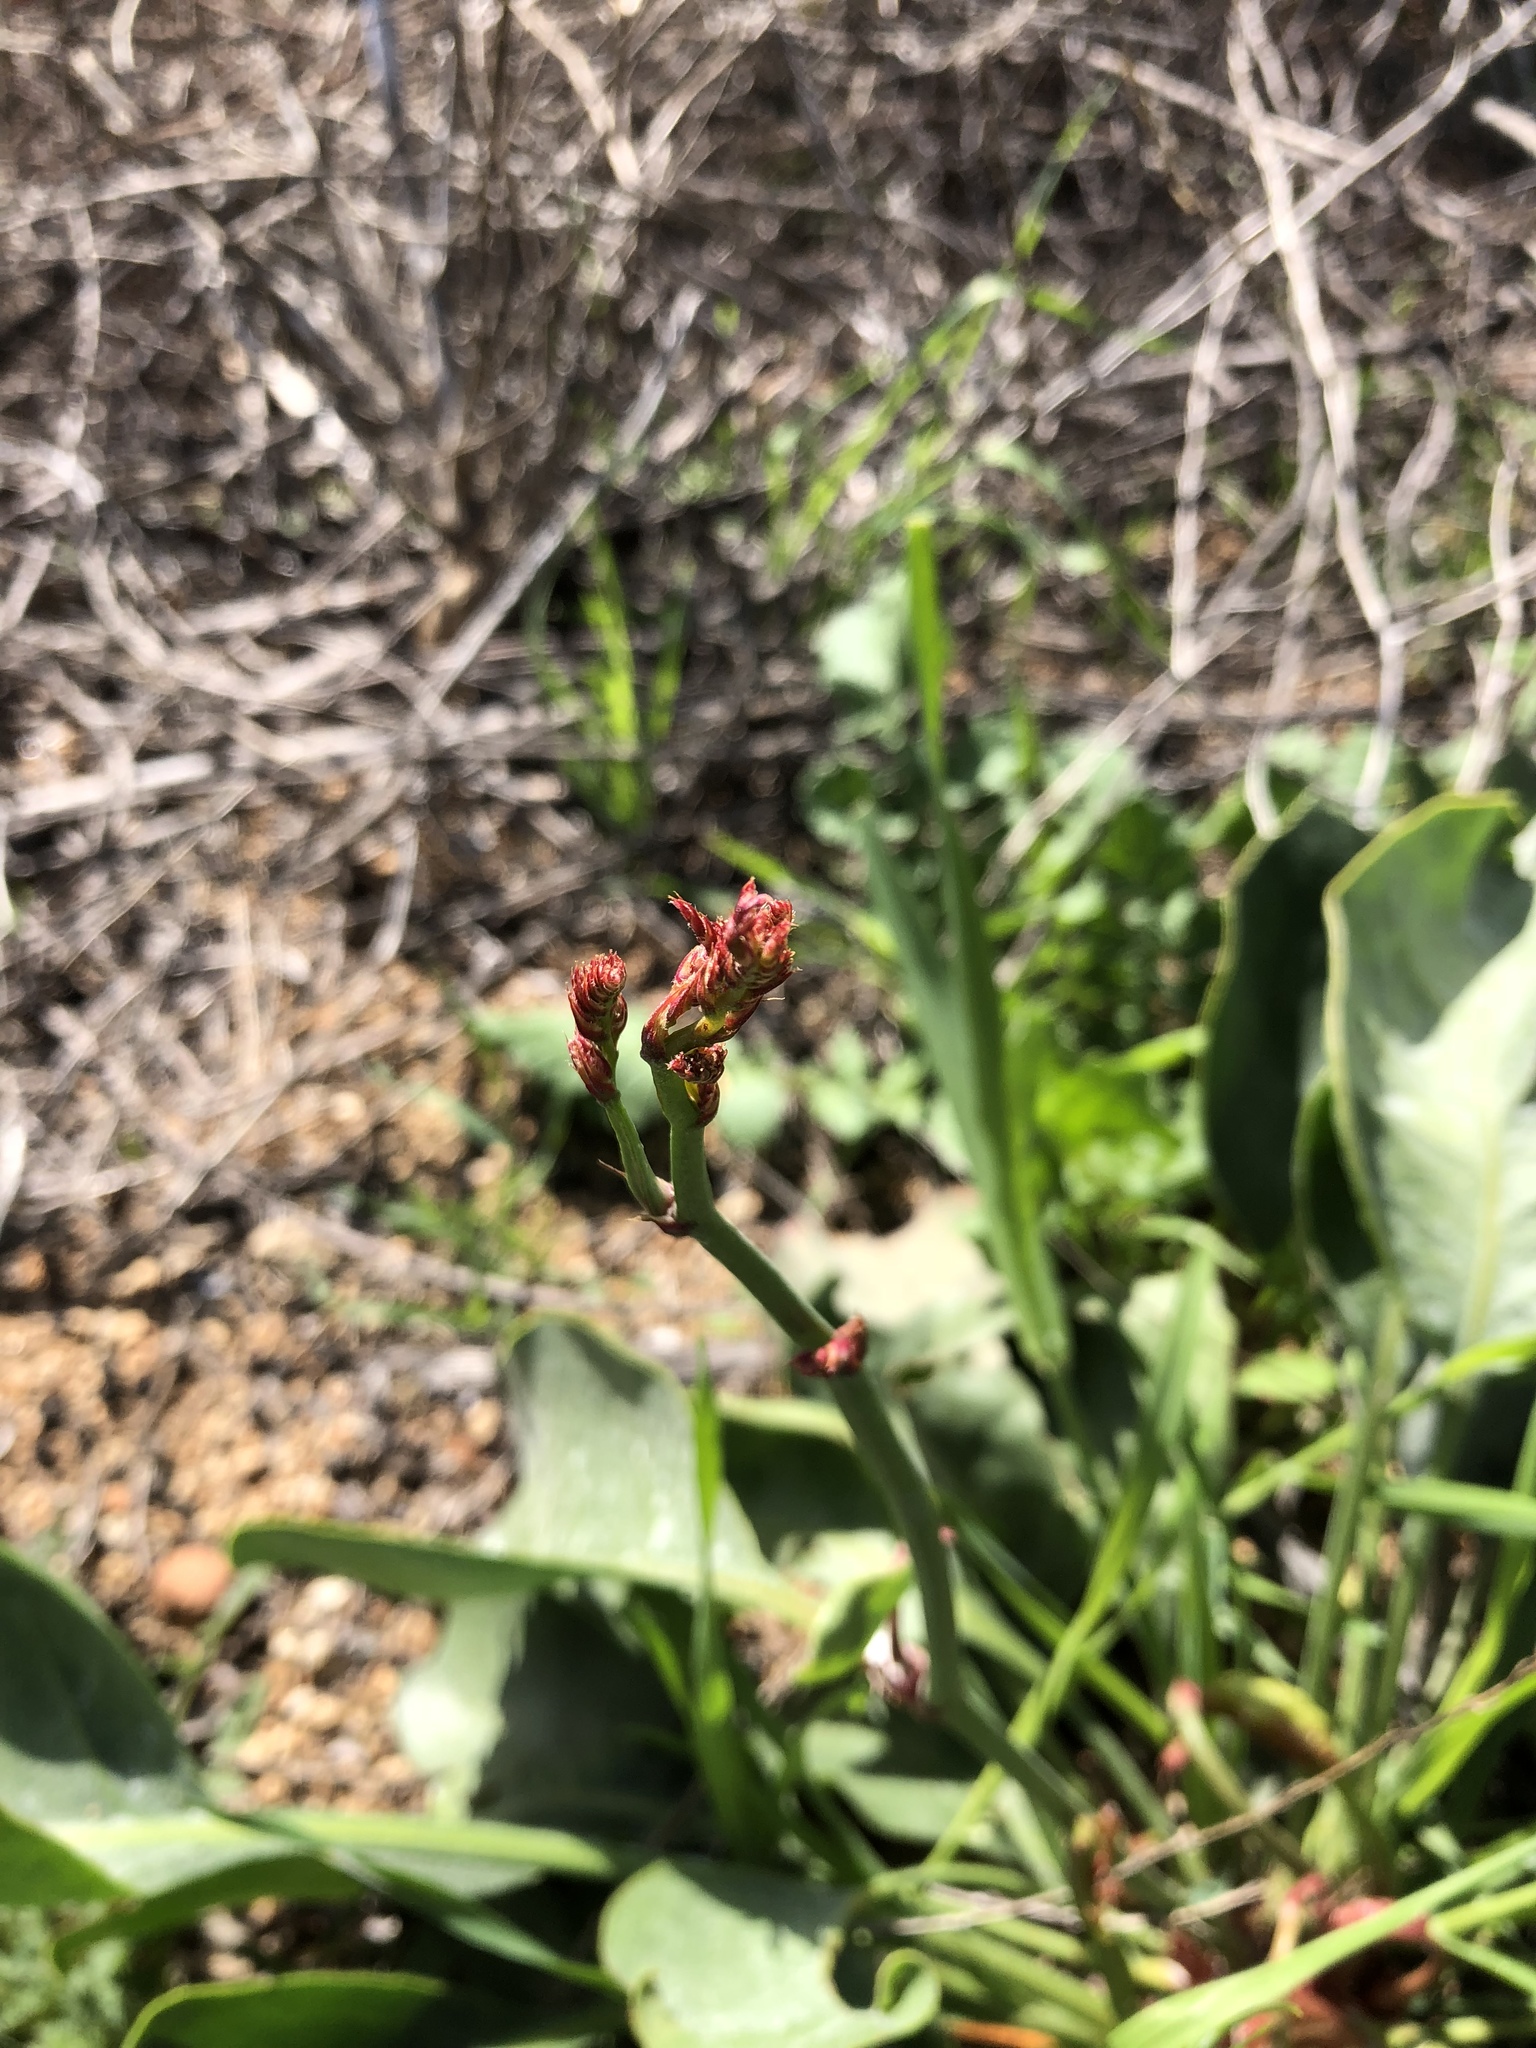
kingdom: Plantae
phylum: Tracheophyta
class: Magnoliopsida
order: Caryophyllales
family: Plumbaginaceae
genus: Limonium
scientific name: Limonium perezii
